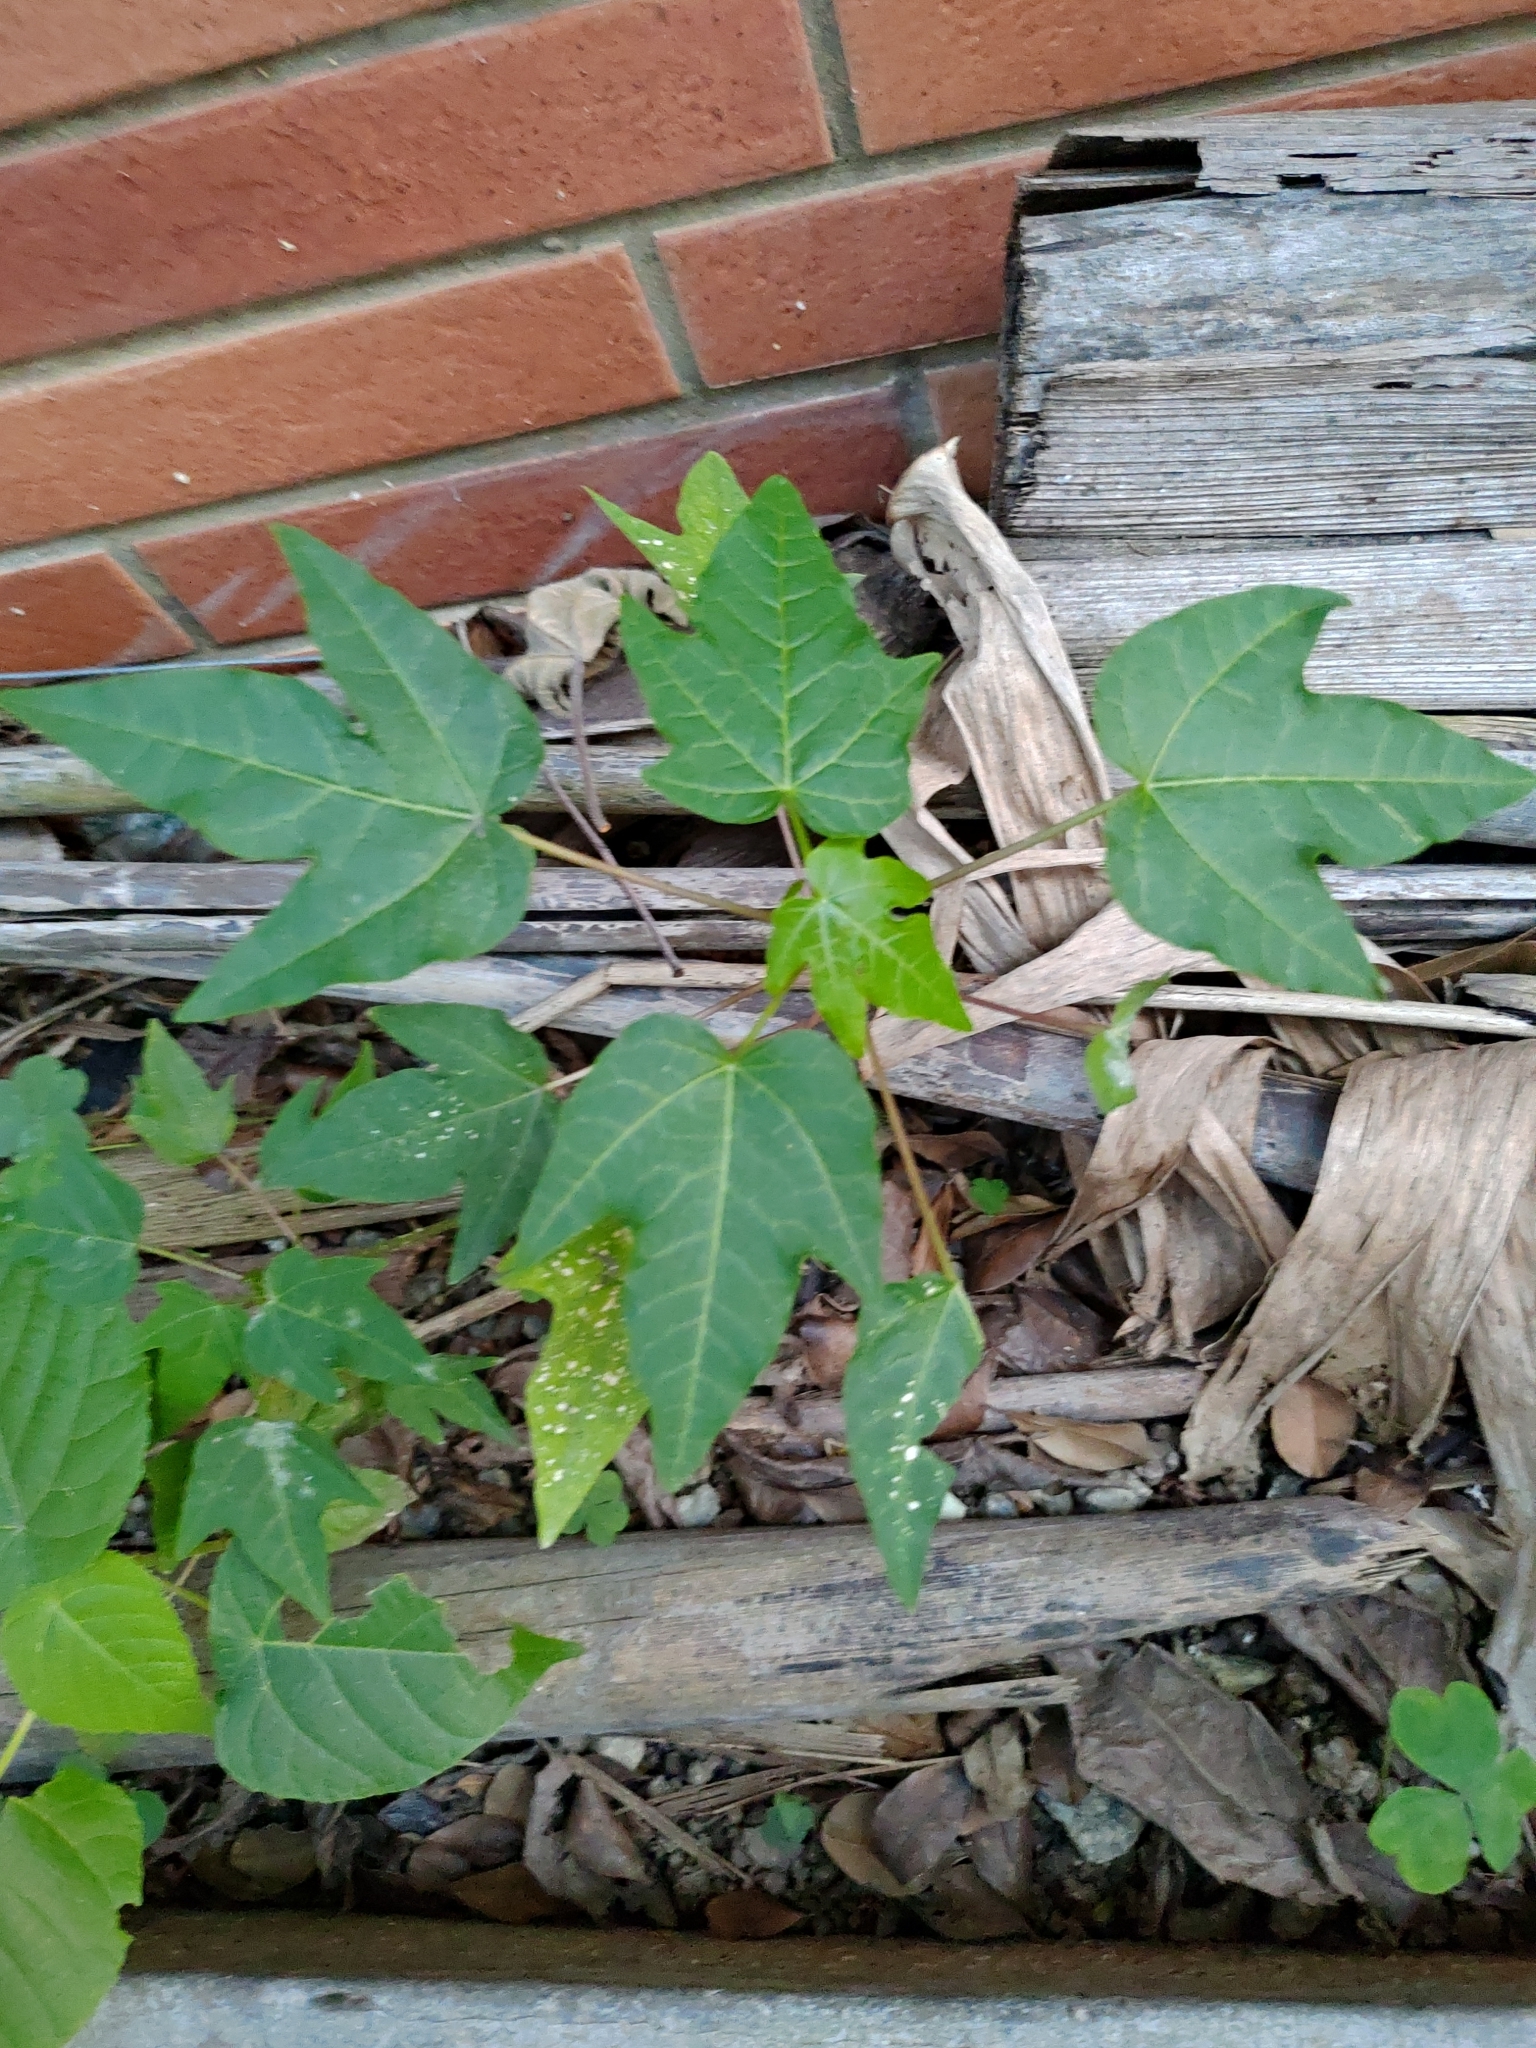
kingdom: Plantae
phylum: Tracheophyta
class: Magnoliopsida
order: Brassicales
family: Caricaceae
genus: Carica
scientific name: Carica papaya
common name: Papaya
